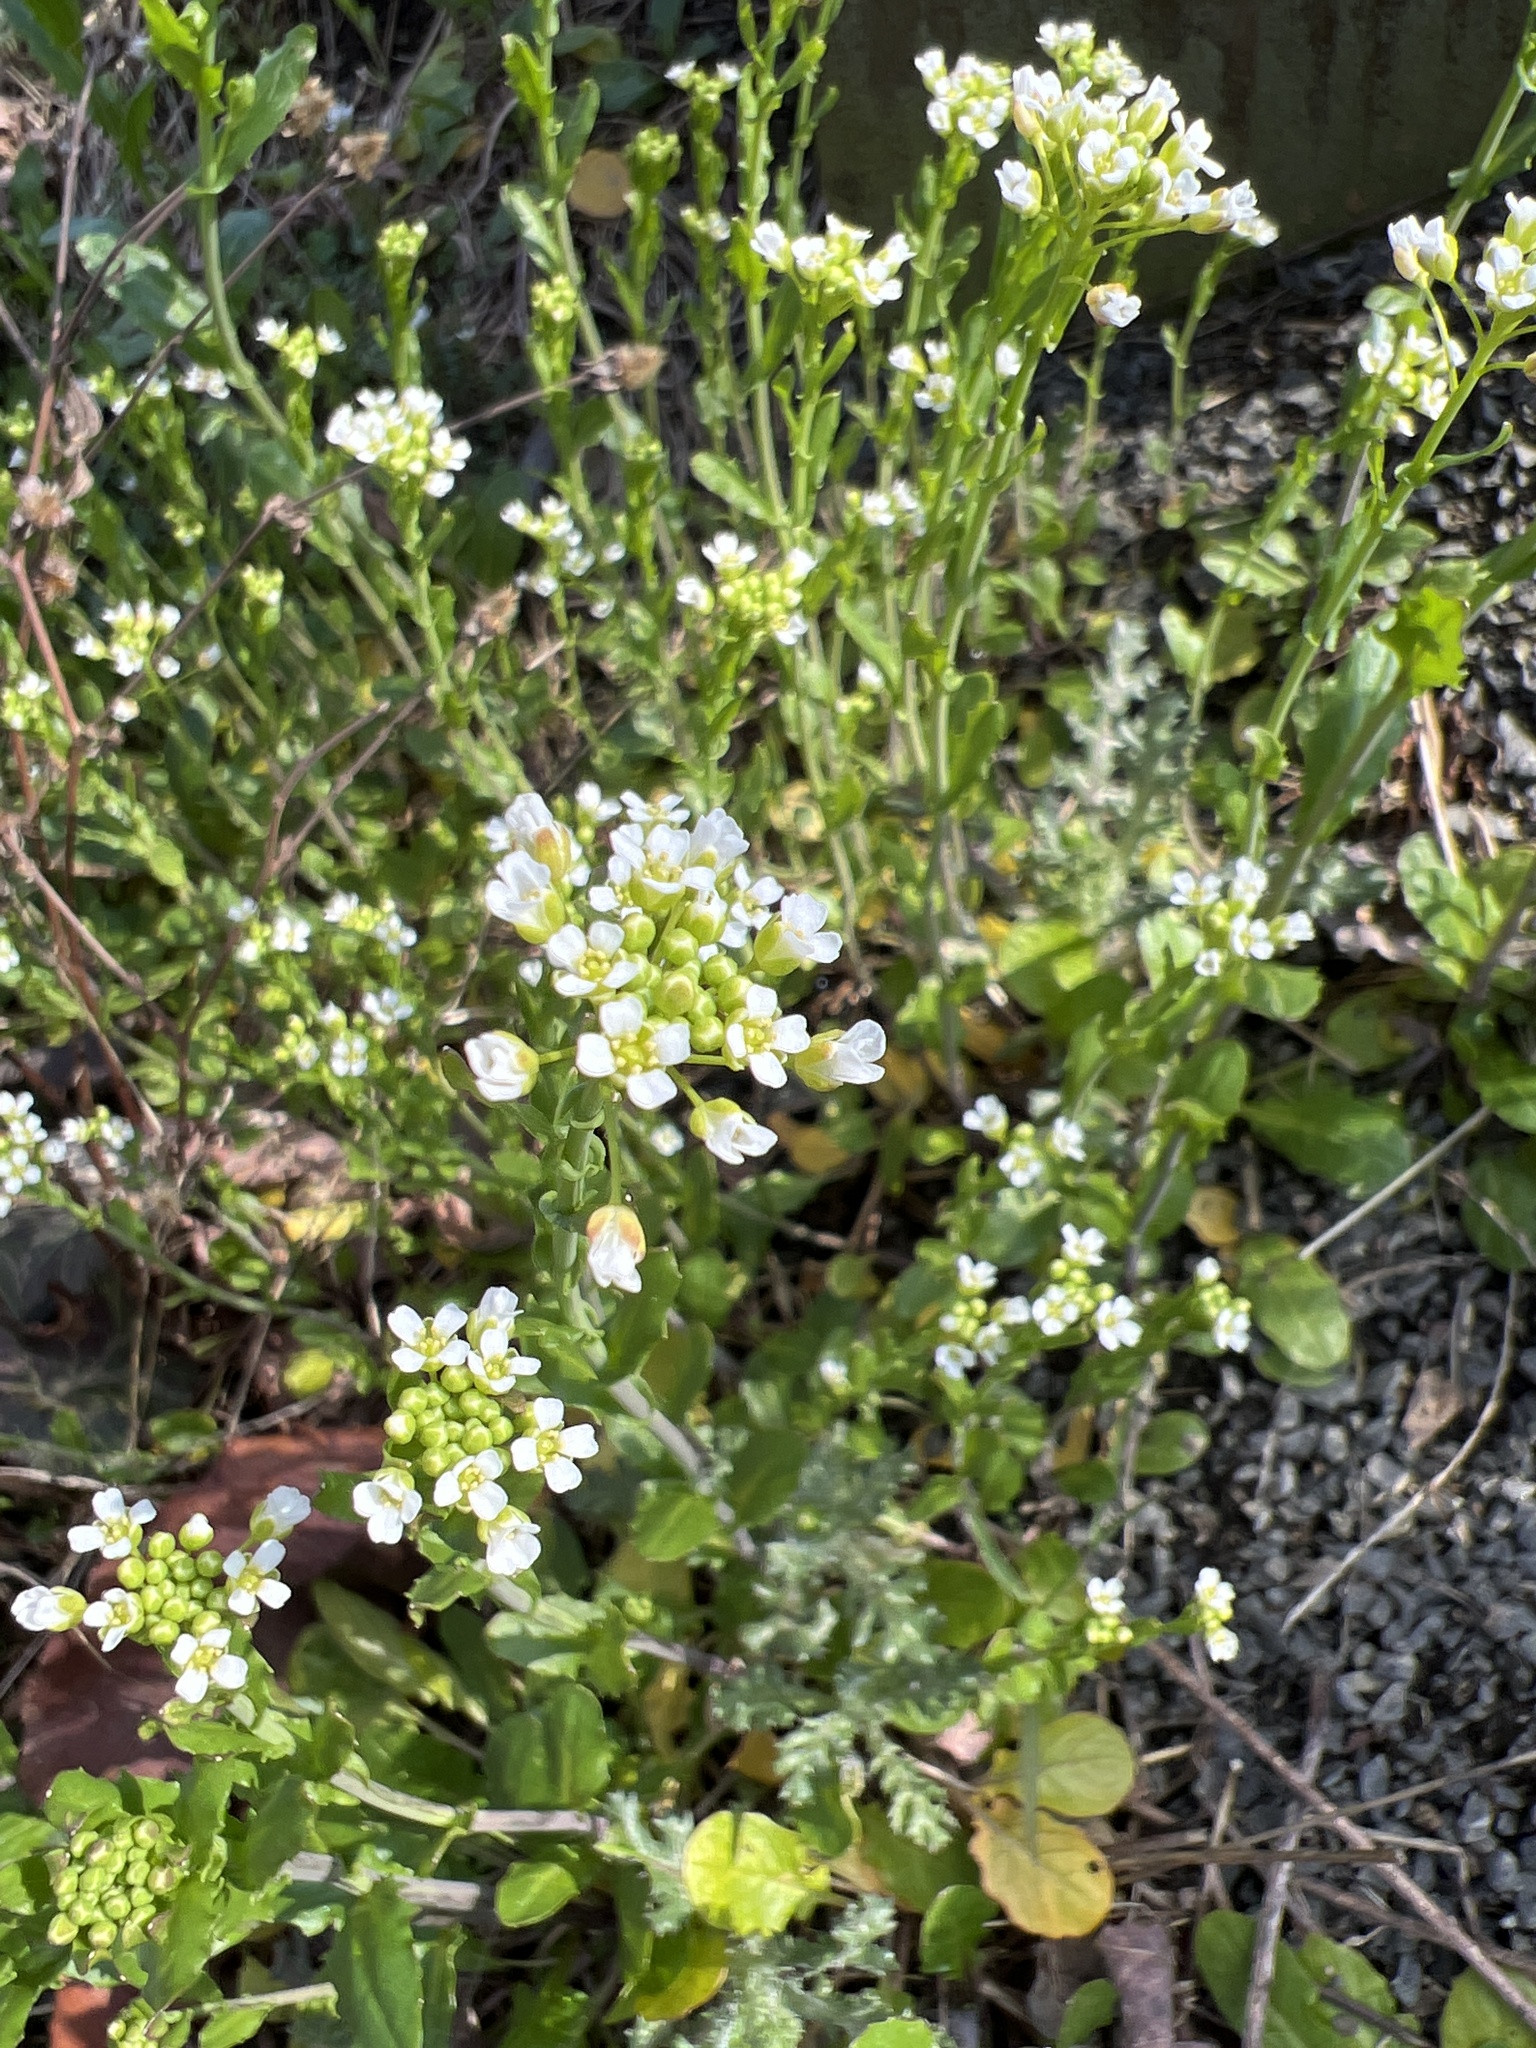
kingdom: Plantae
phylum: Tracheophyta
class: Magnoliopsida
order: Brassicales
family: Brassicaceae
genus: Mummenhoffia
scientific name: Mummenhoffia alliacea
